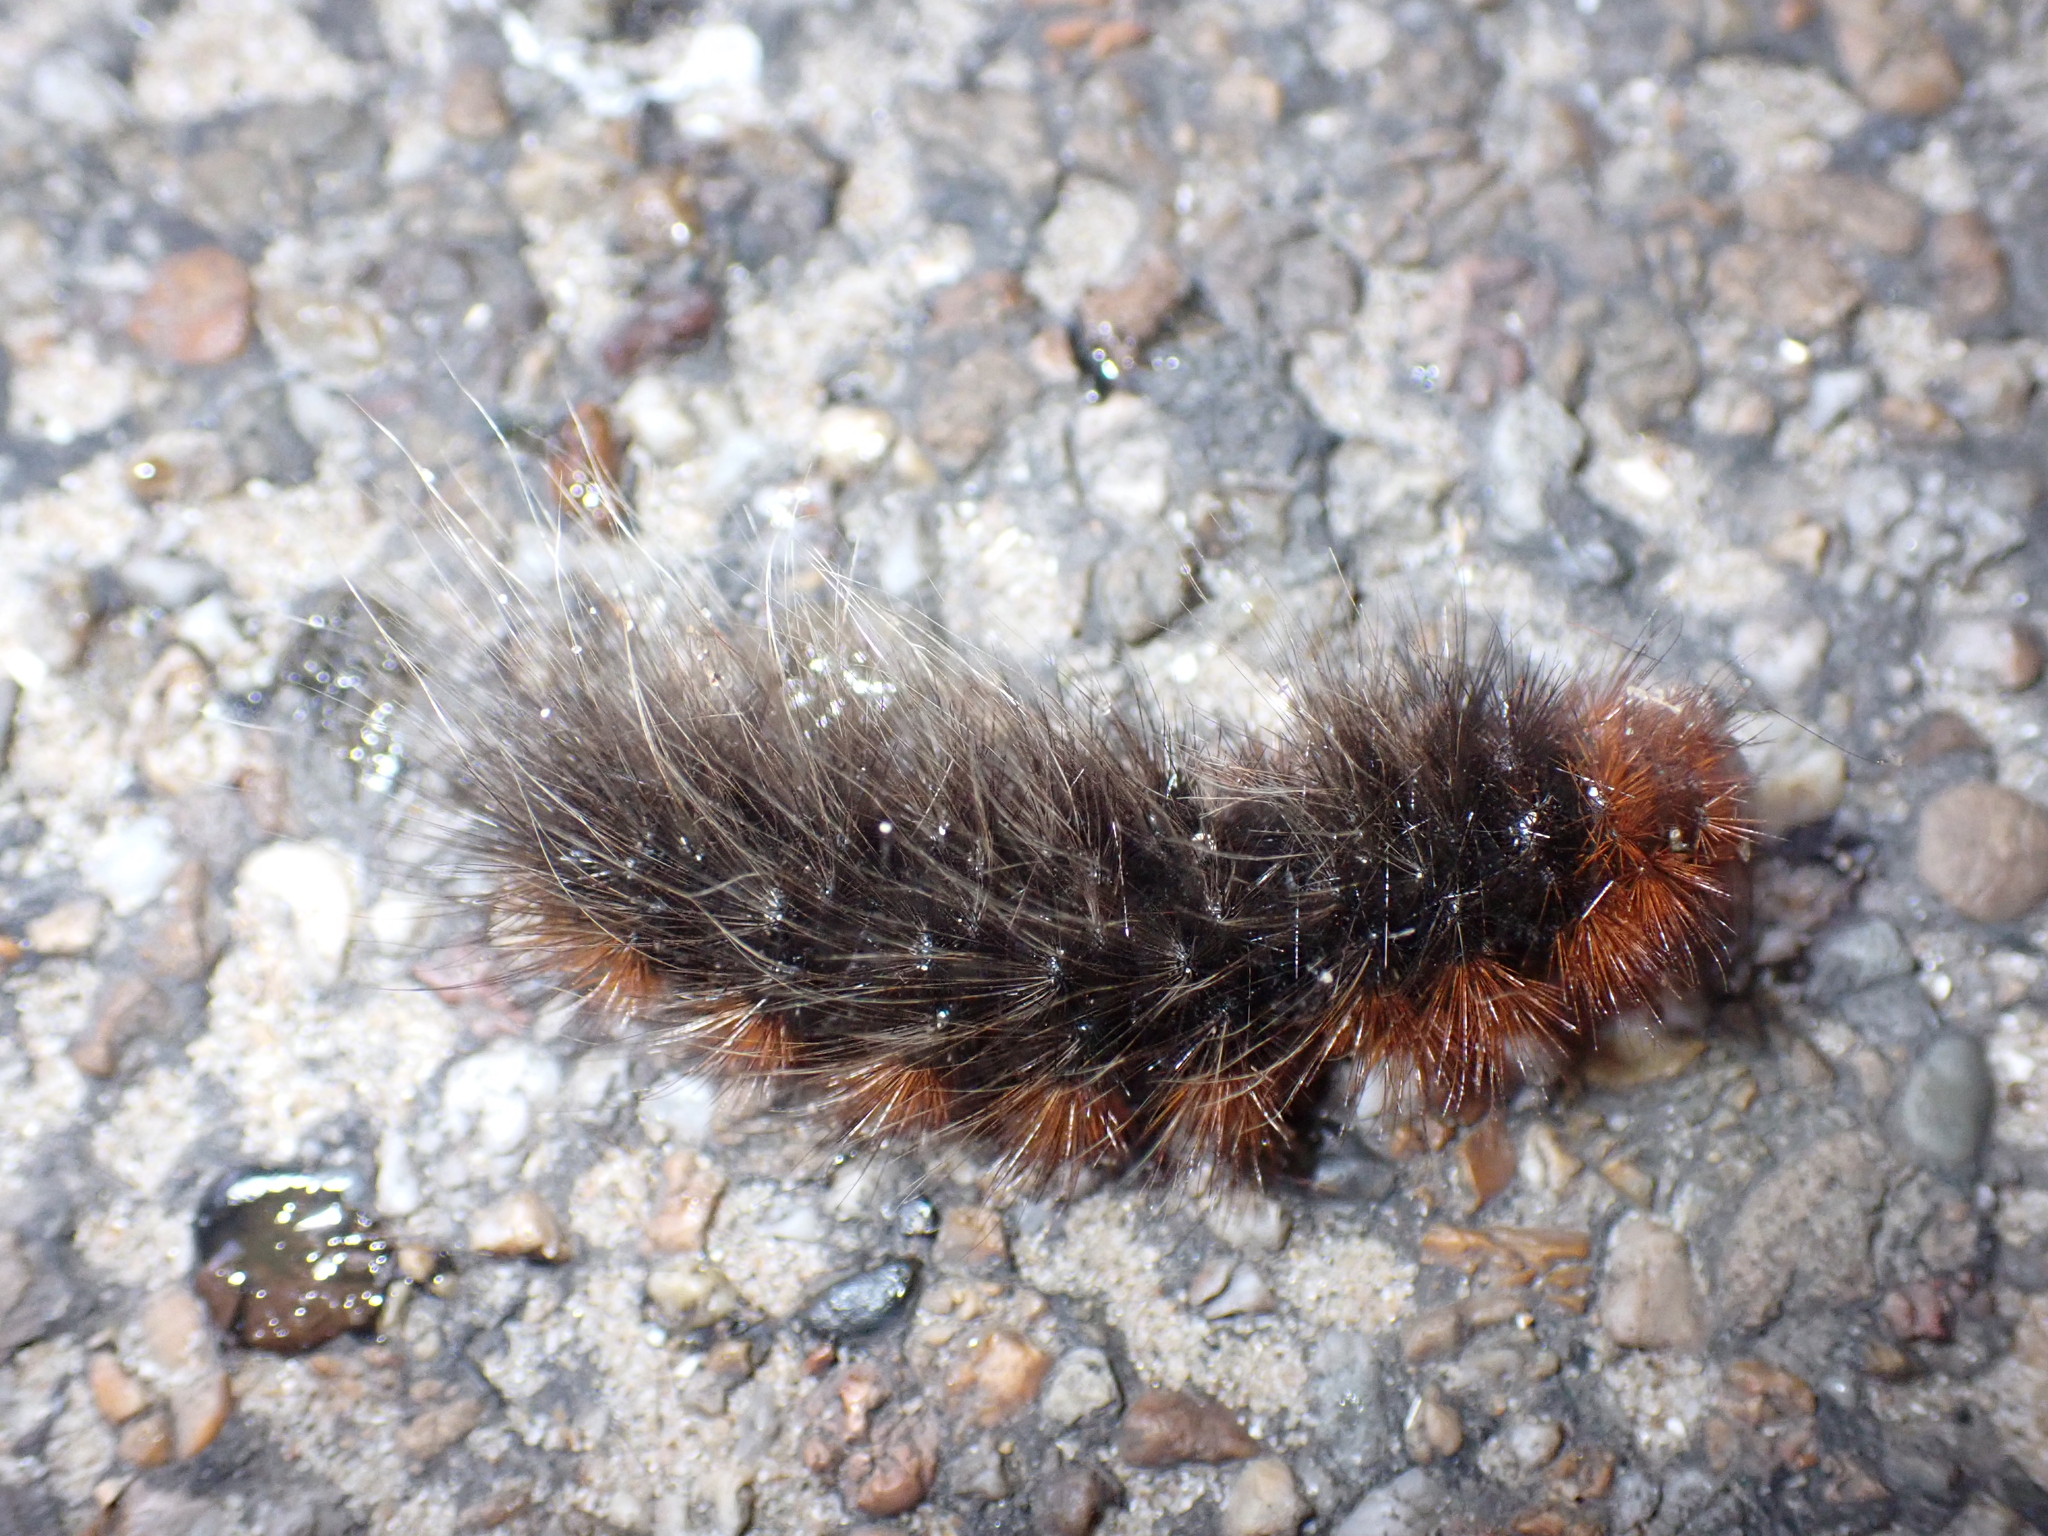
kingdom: Animalia
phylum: Arthropoda
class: Insecta
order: Lepidoptera
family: Erebidae
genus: Arctia
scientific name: Arctia caja
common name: Garden tiger
